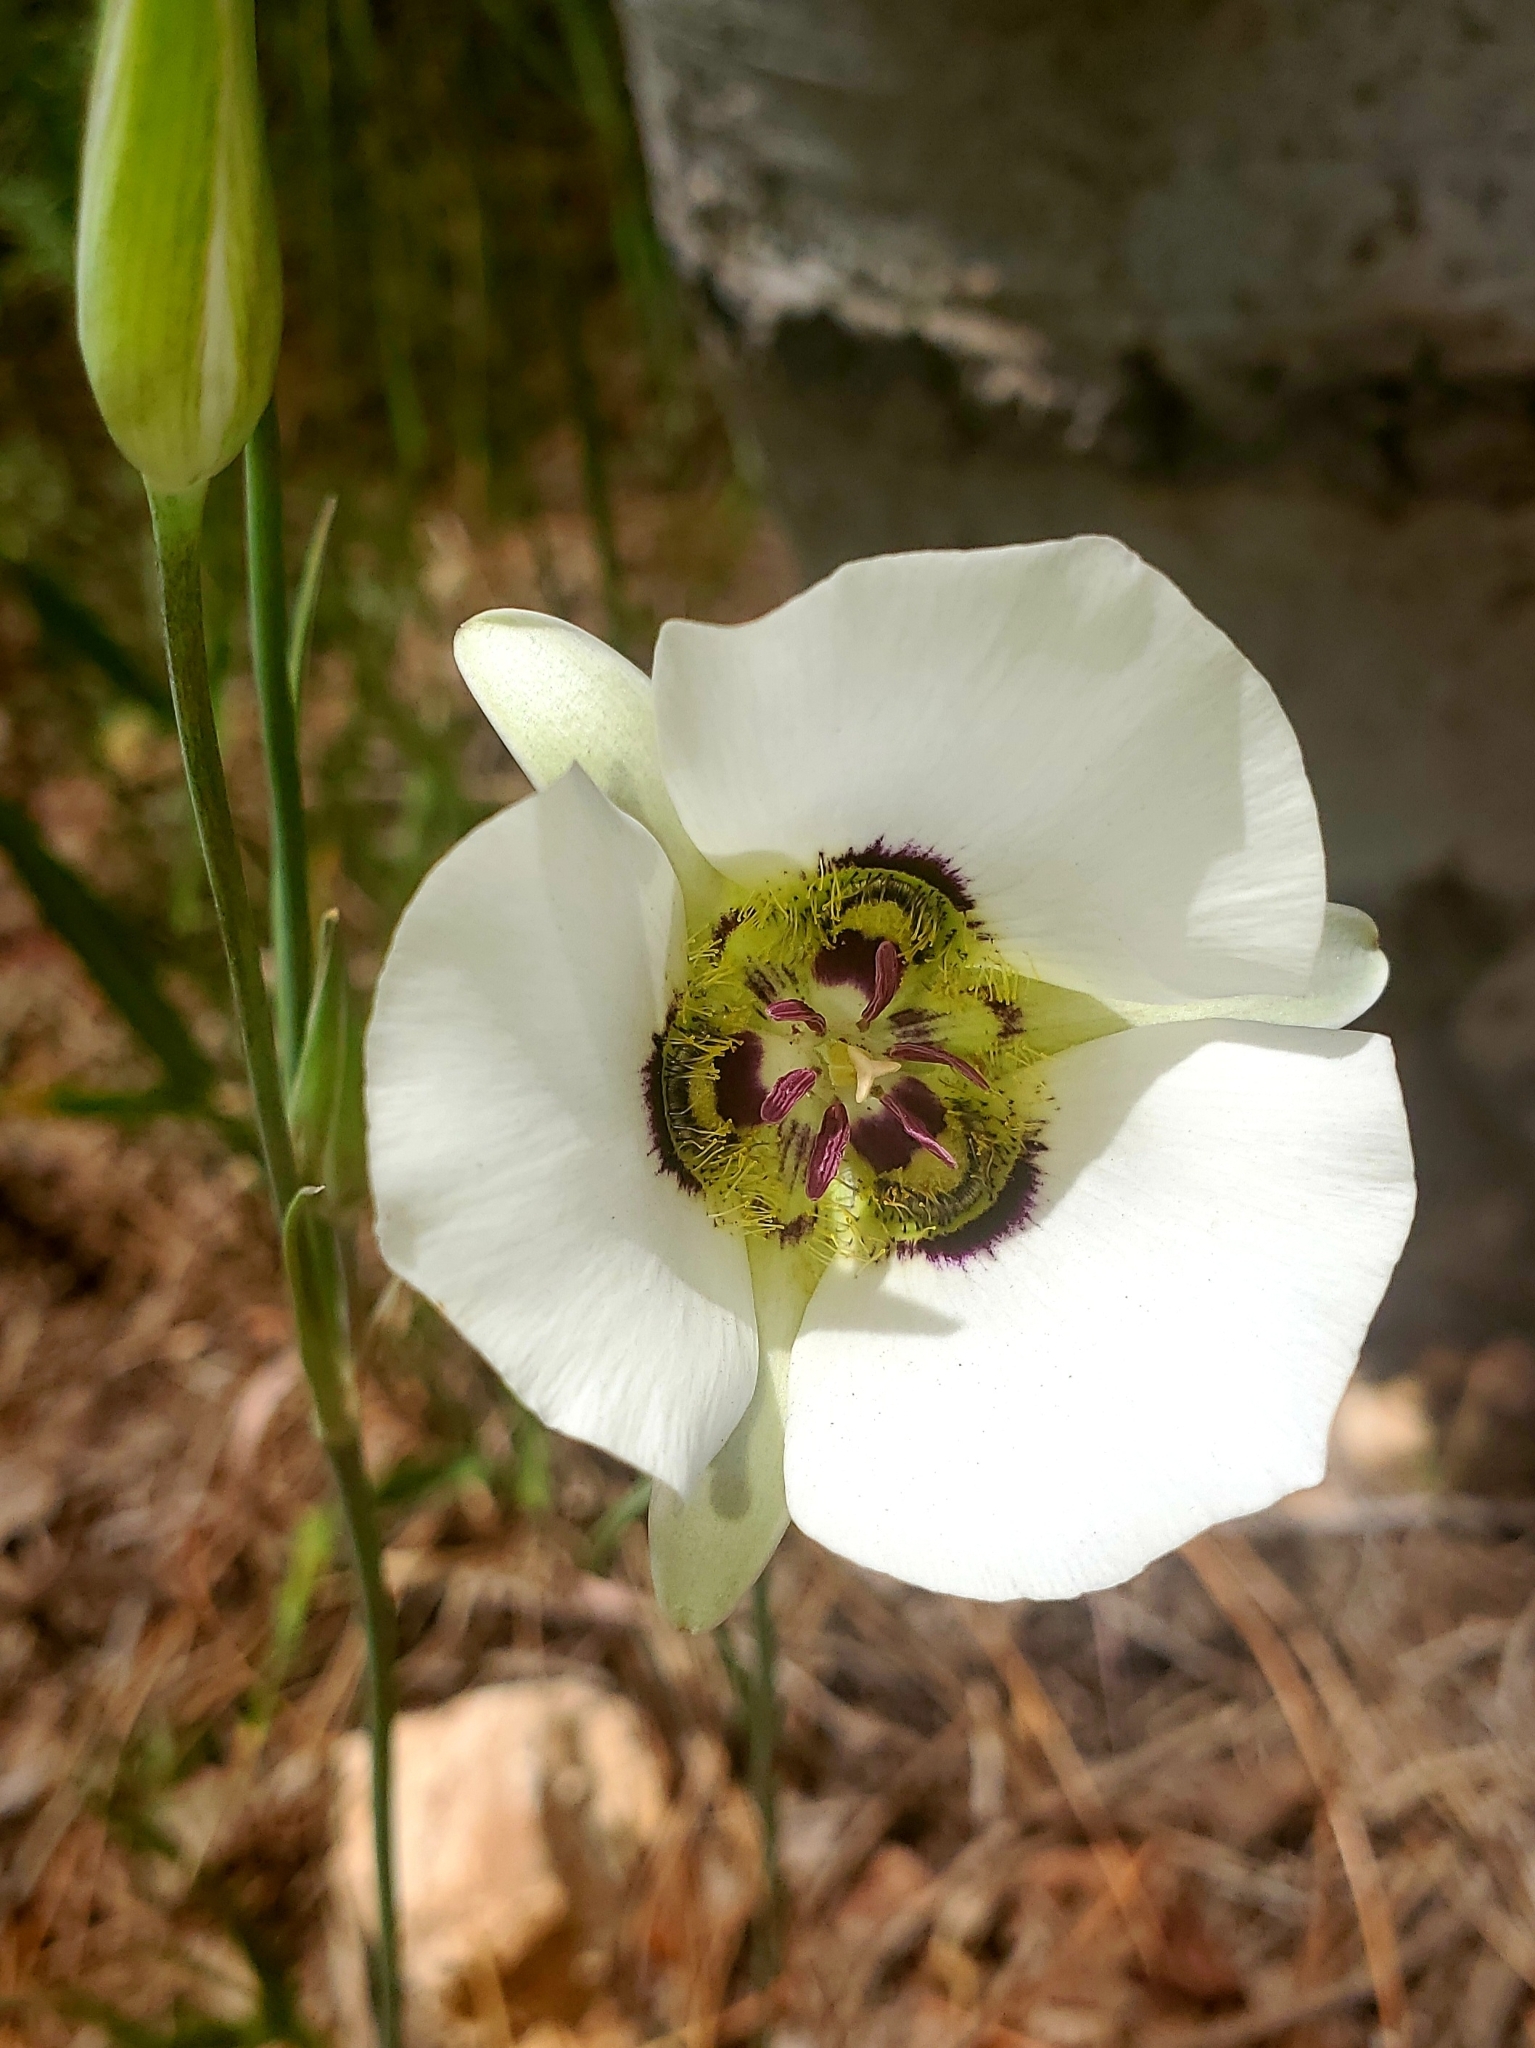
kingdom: Plantae
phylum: Tracheophyta
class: Liliopsida
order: Liliales
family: Liliaceae
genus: Calochortus
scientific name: Calochortus ambiguus
